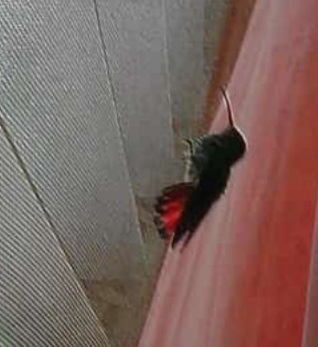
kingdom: Animalia
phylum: Chordata
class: Aves
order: Apodiformes
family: Trochilidae
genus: Amazilia
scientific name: Amazilia tzacatl
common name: Rufous-tailed hummingbird
